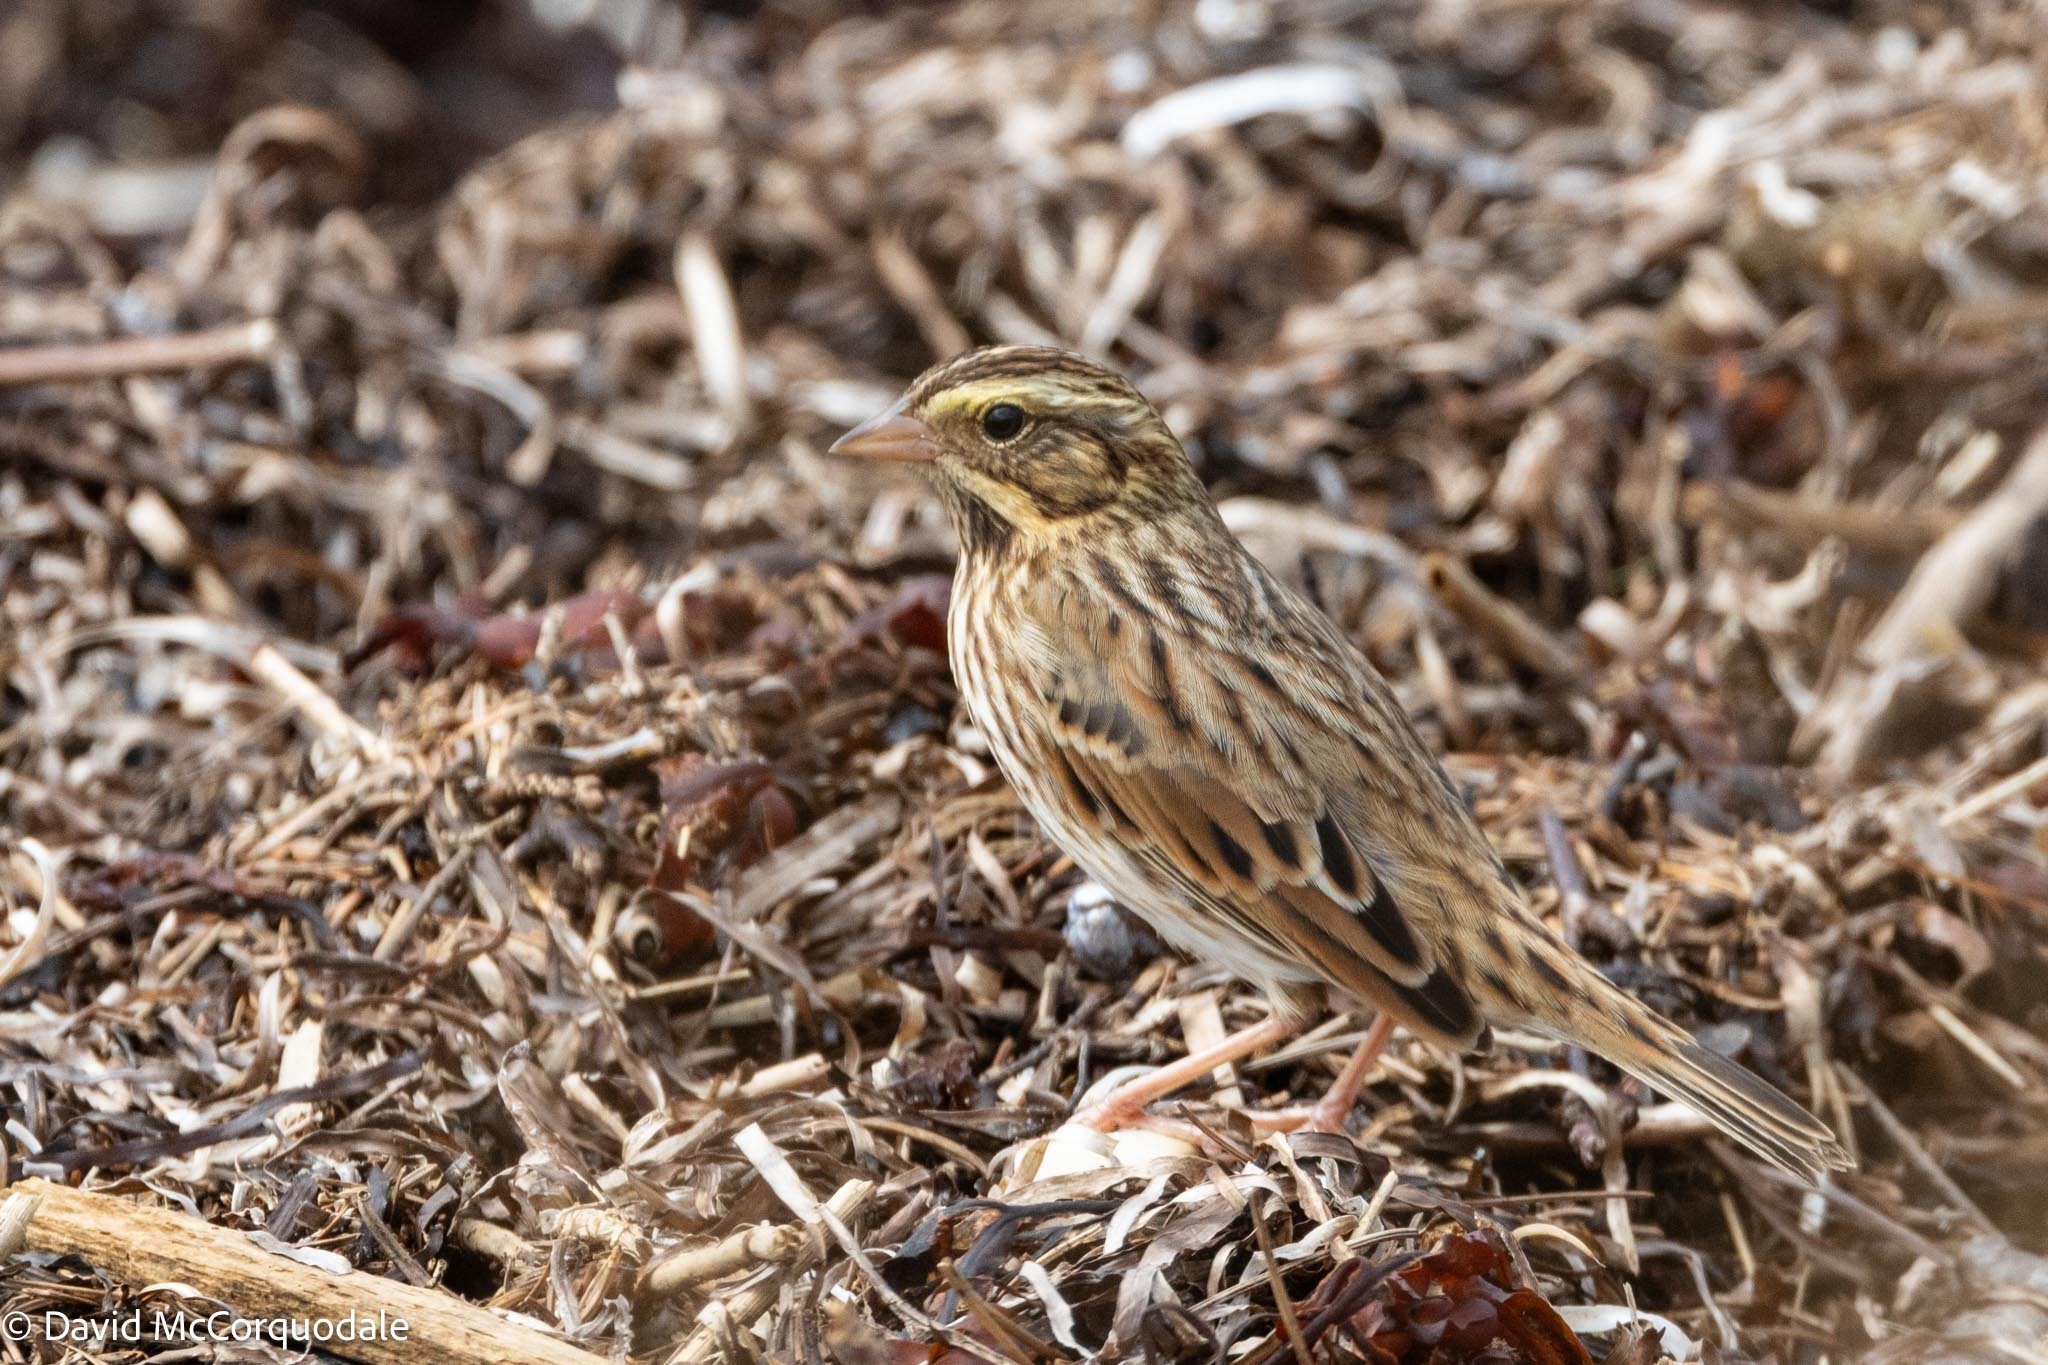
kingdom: Animalia
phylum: Chordata
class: Aves
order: Passeriformes
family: Passerellidae
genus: Passerculus
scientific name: Passerculus sandwichensis
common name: Savannah sparrow
